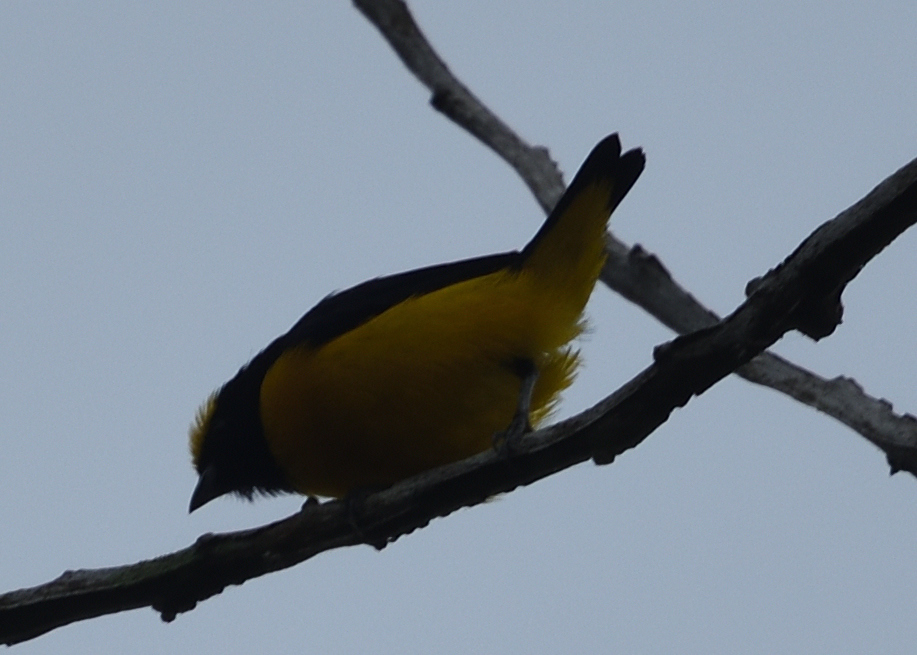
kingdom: Animalia
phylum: Chordata
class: Aves
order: Passeriformes
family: Fringillidae
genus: Euphonia
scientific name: Euphonia trinitatis
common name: Trinidad euphonia
